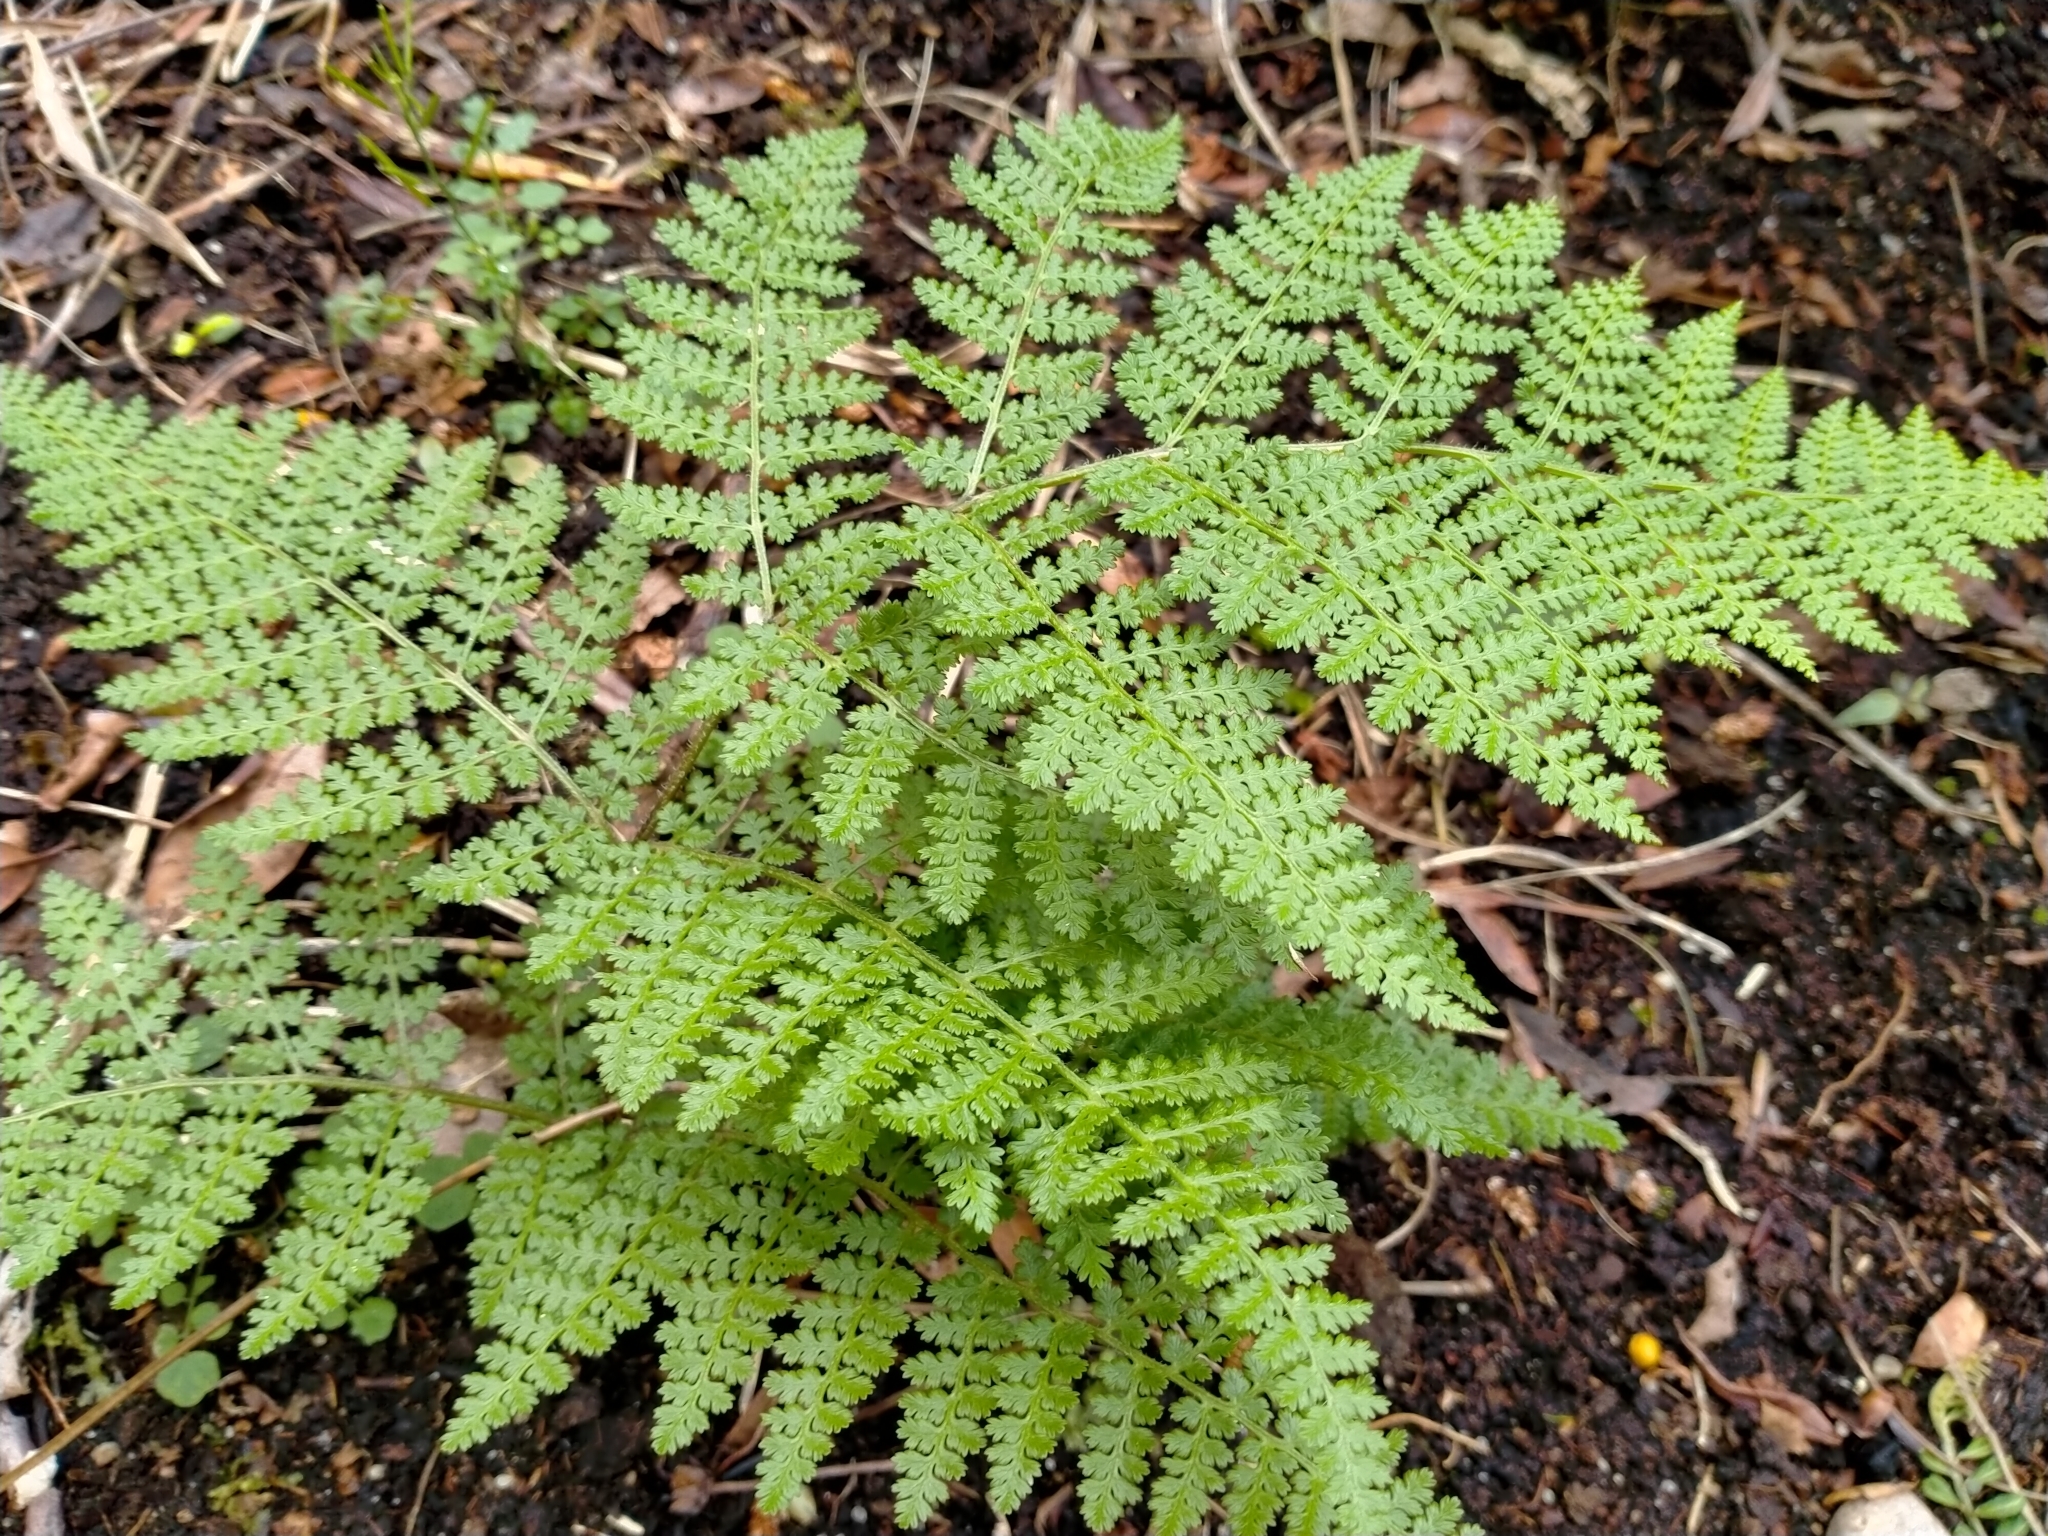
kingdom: Plantae
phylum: Tracheophyta
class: Polypodiopsida
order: Polypodiales
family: Dennstaedtiaceae
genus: Hypolepis
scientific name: Hypolepis millefolium
